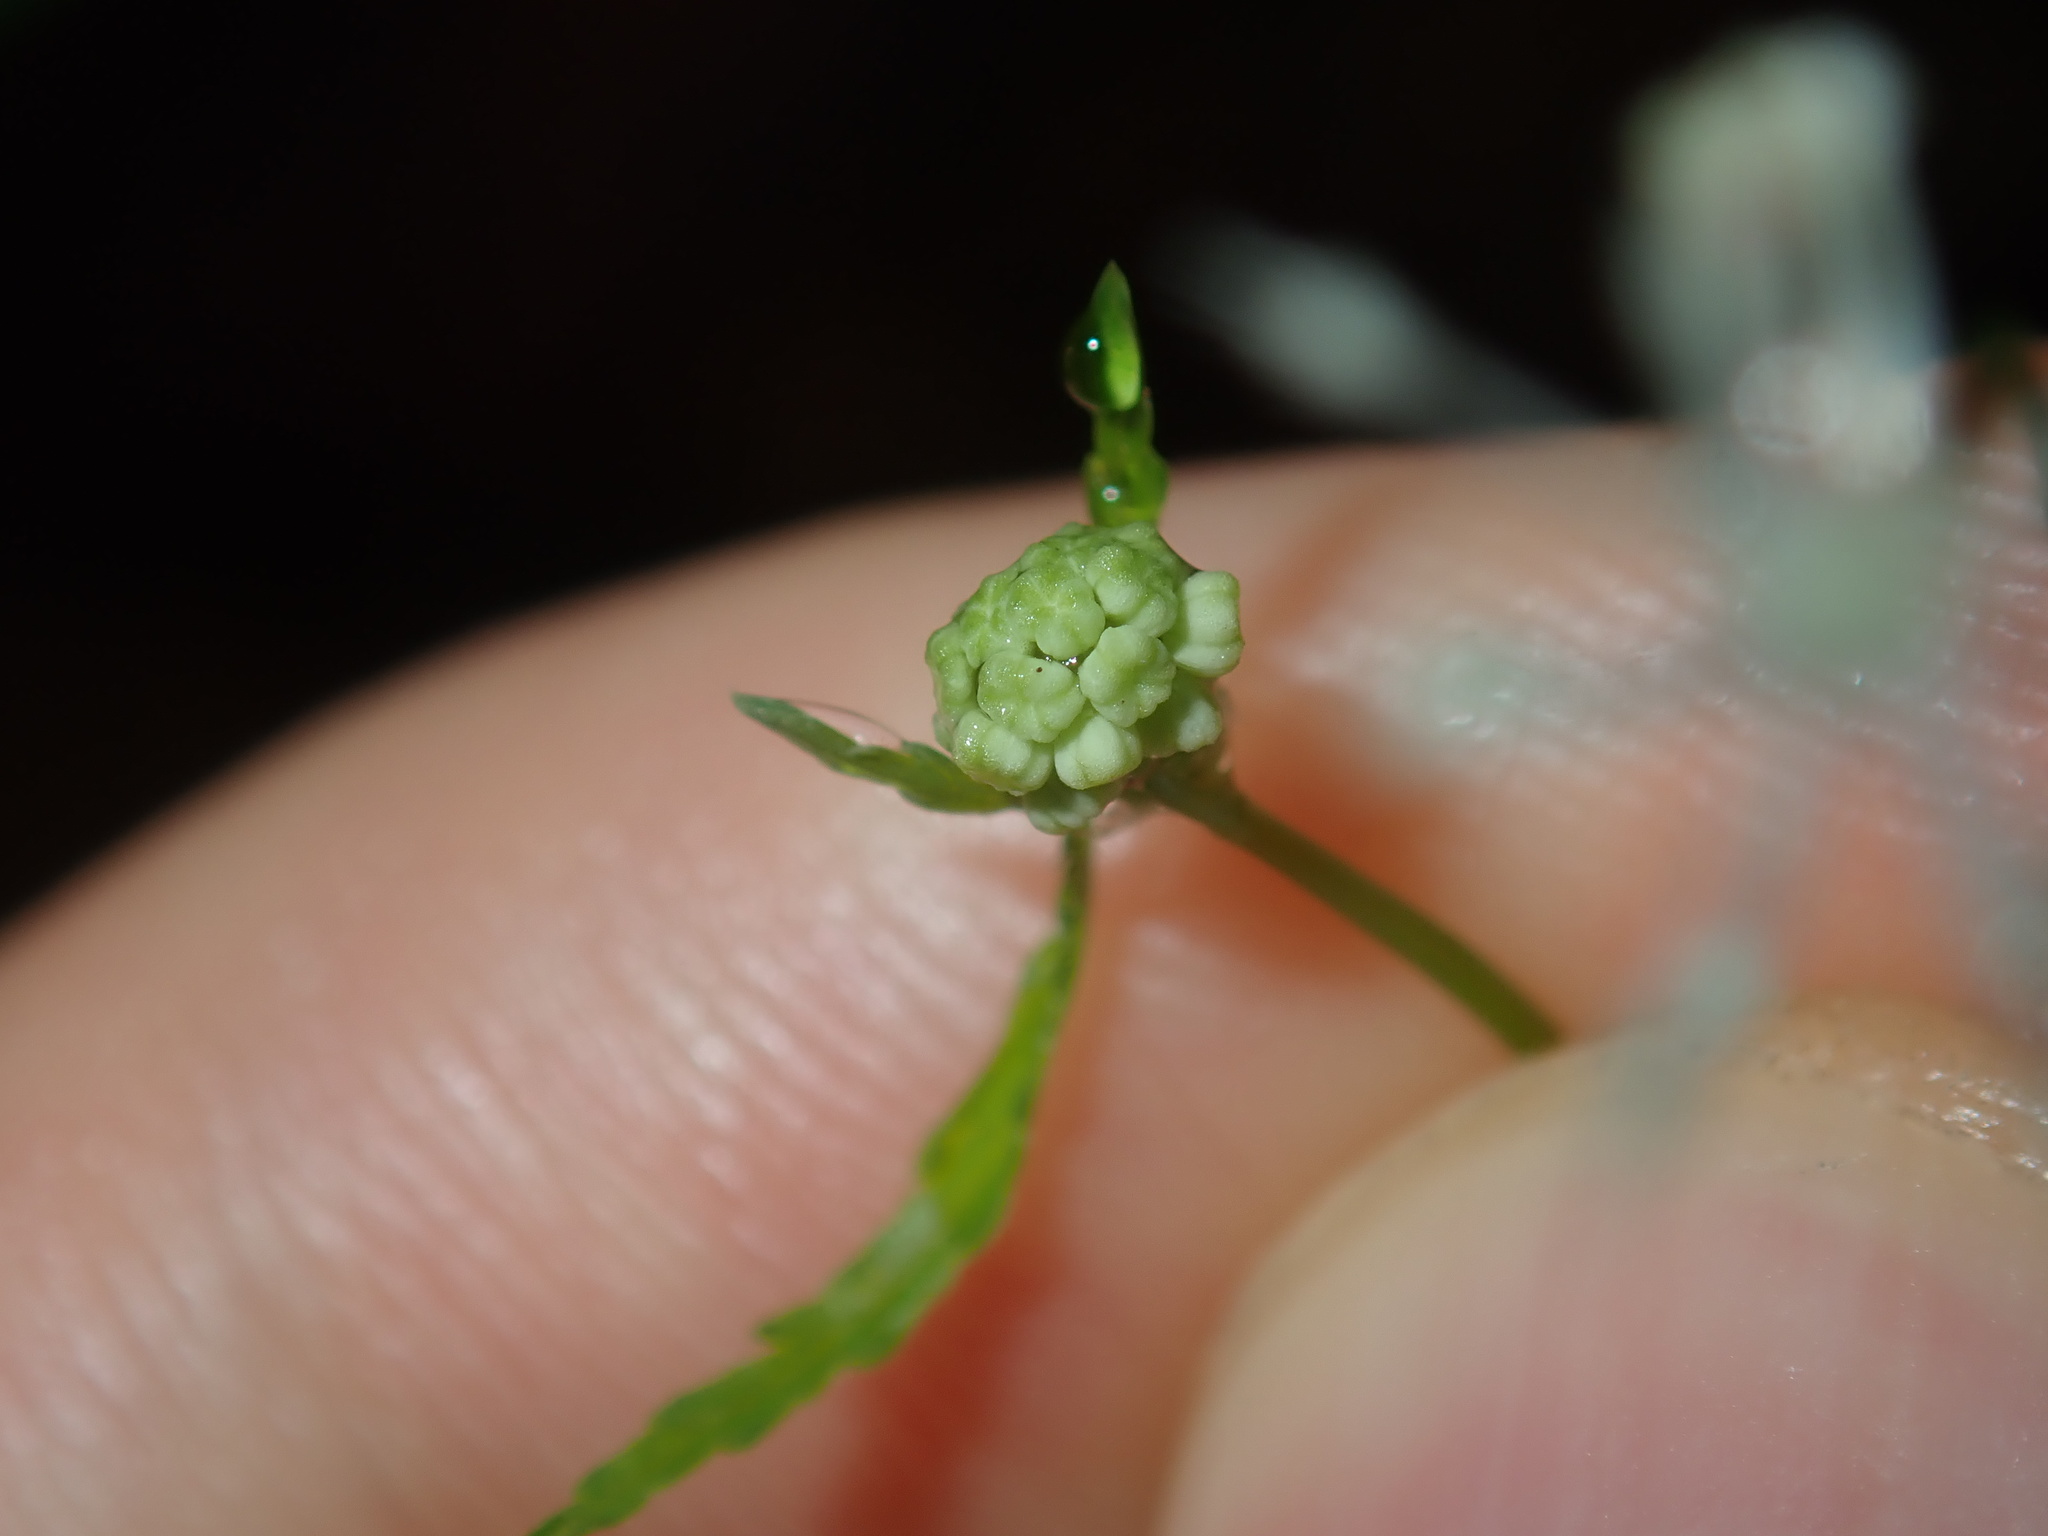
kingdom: Plantae
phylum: Tracheophyta
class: Magnoliopsida
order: Apiales
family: Araliaceae
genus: Hydrocotyle
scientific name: Hydrocotyle geraniifolia
